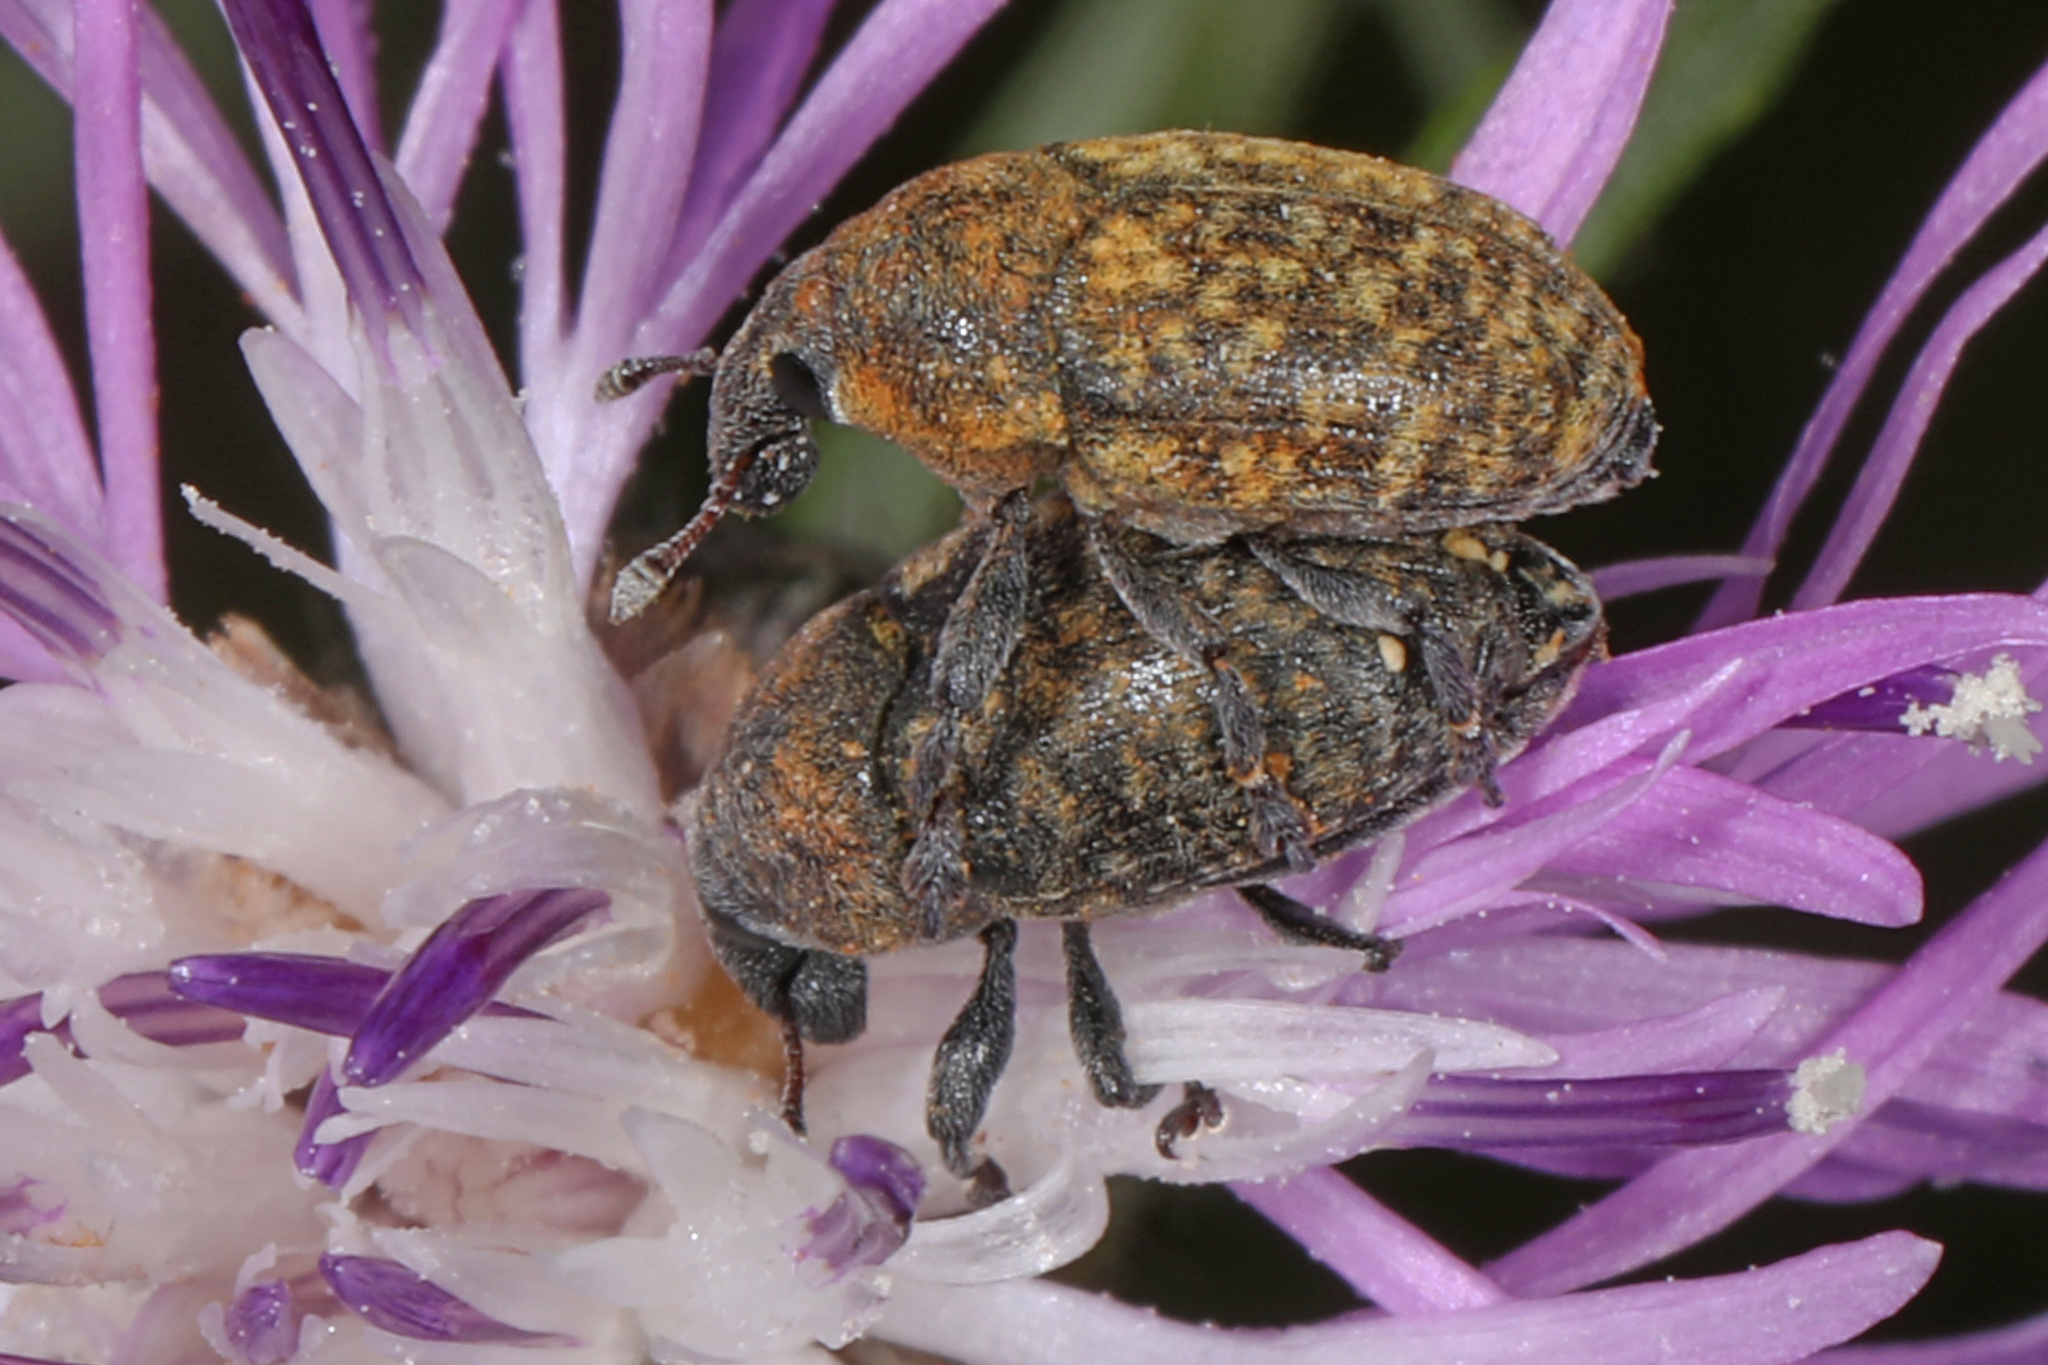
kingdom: Animalia
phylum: Arthropoda
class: Insecta
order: Coleoptera
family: Curculionidae
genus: Larinus
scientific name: Larinus obtusus
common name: Weevil
